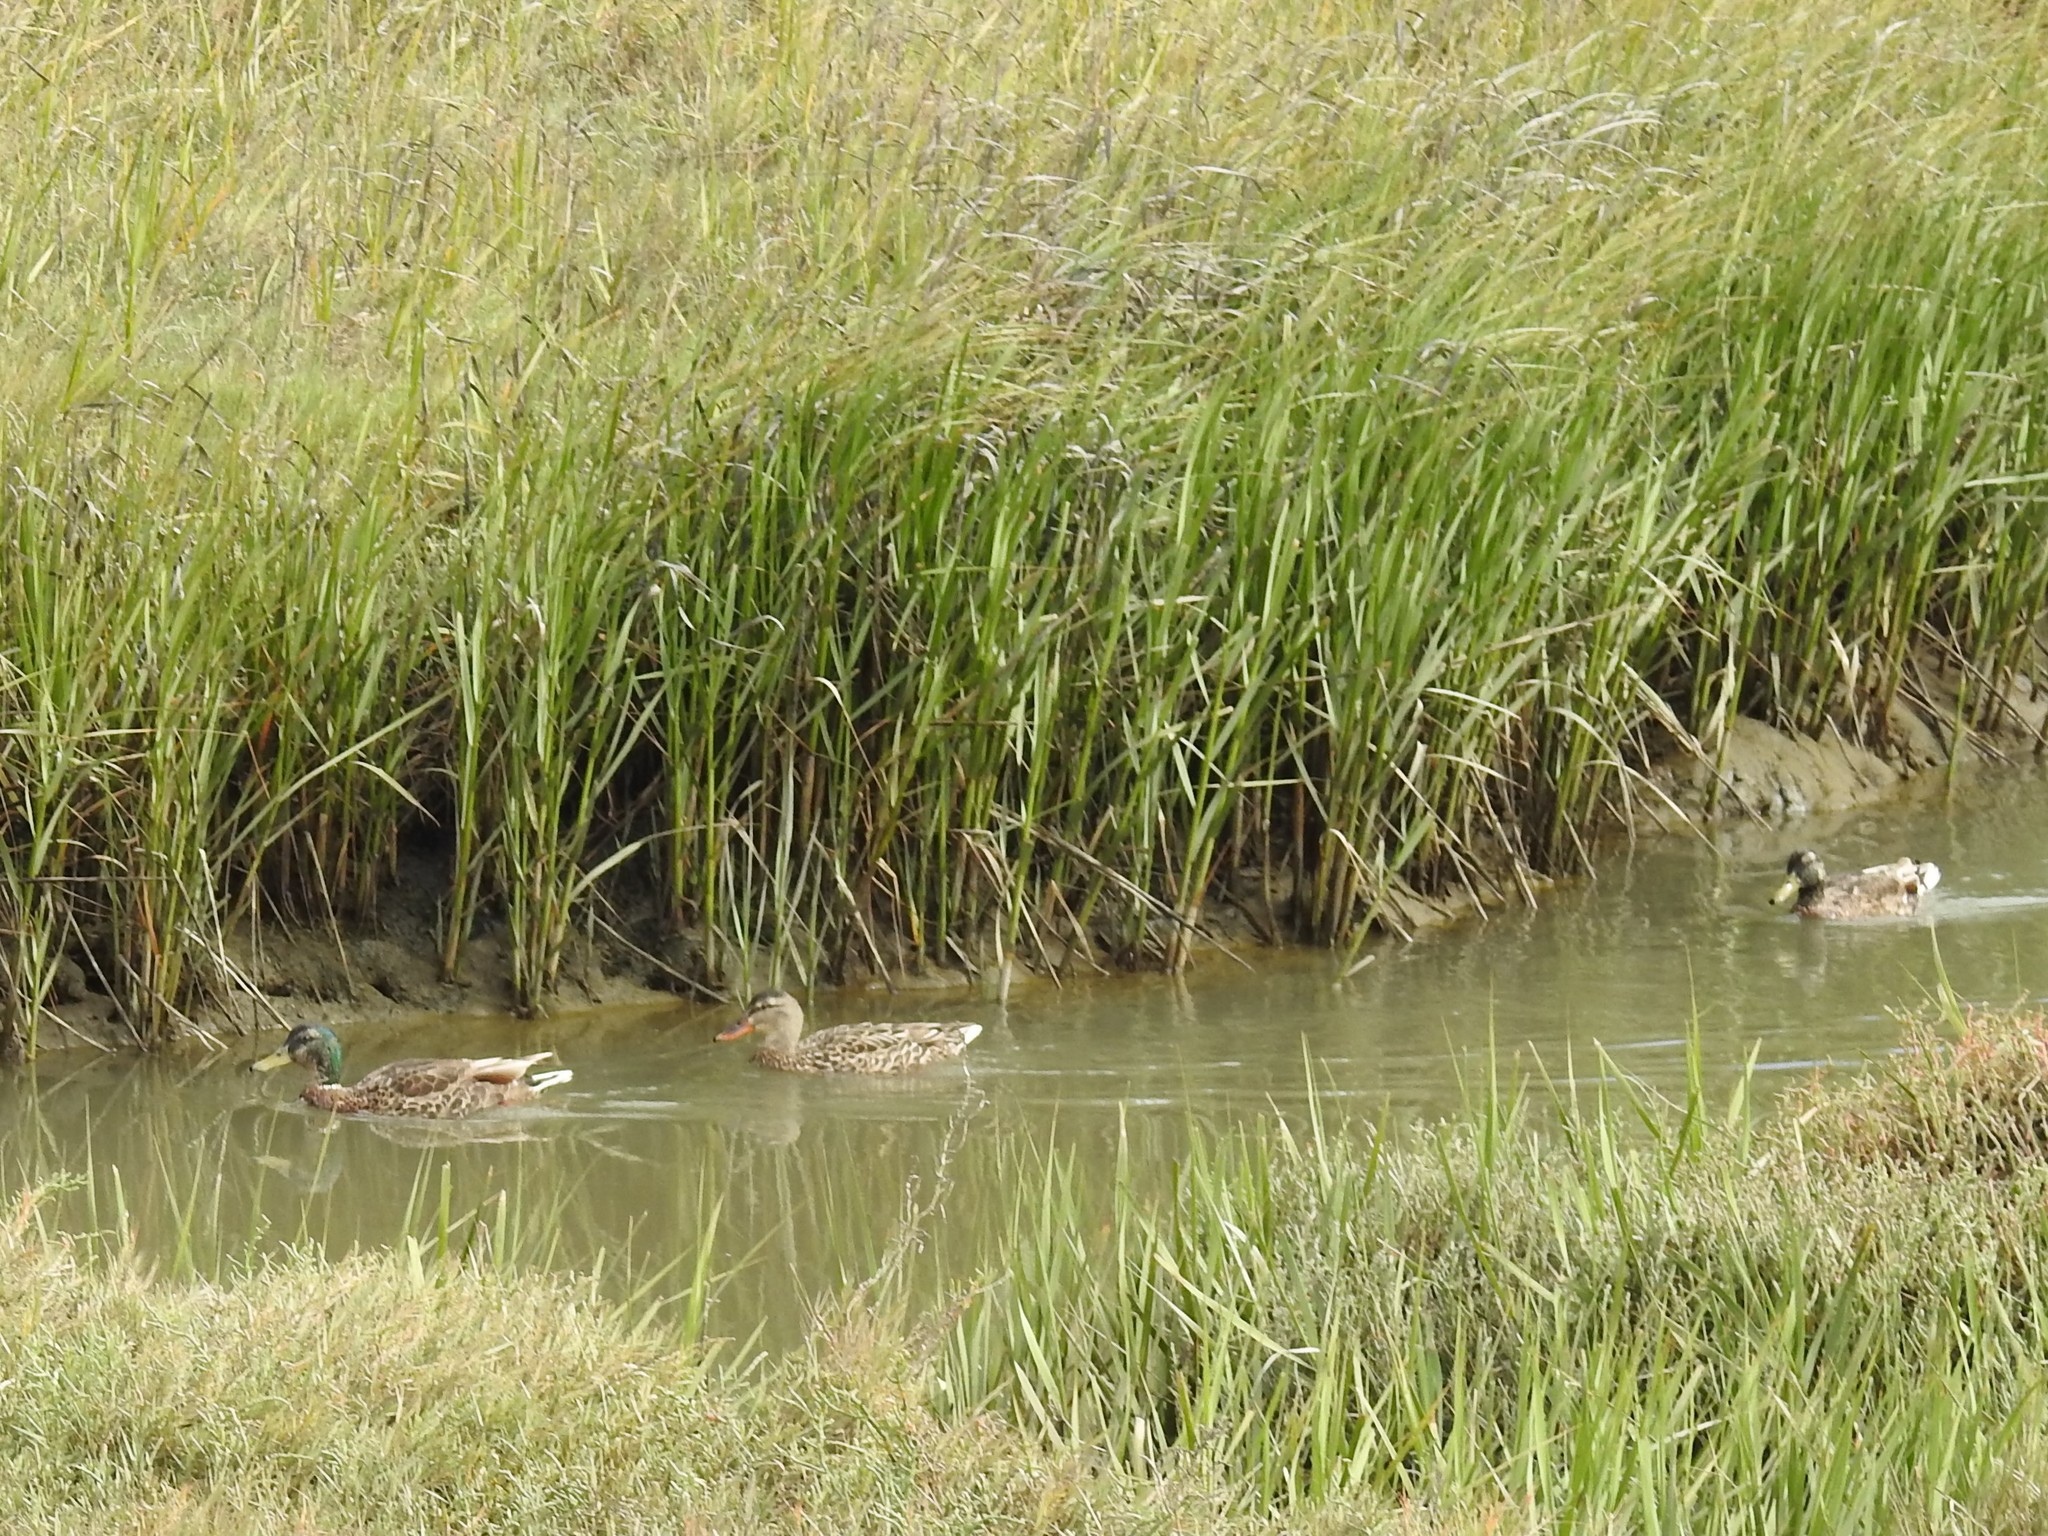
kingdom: Animalia
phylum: Chordata
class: Aves
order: Anseriformes
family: Anatidae
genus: Anas
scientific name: Anas platyrhynchos
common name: Mallard
